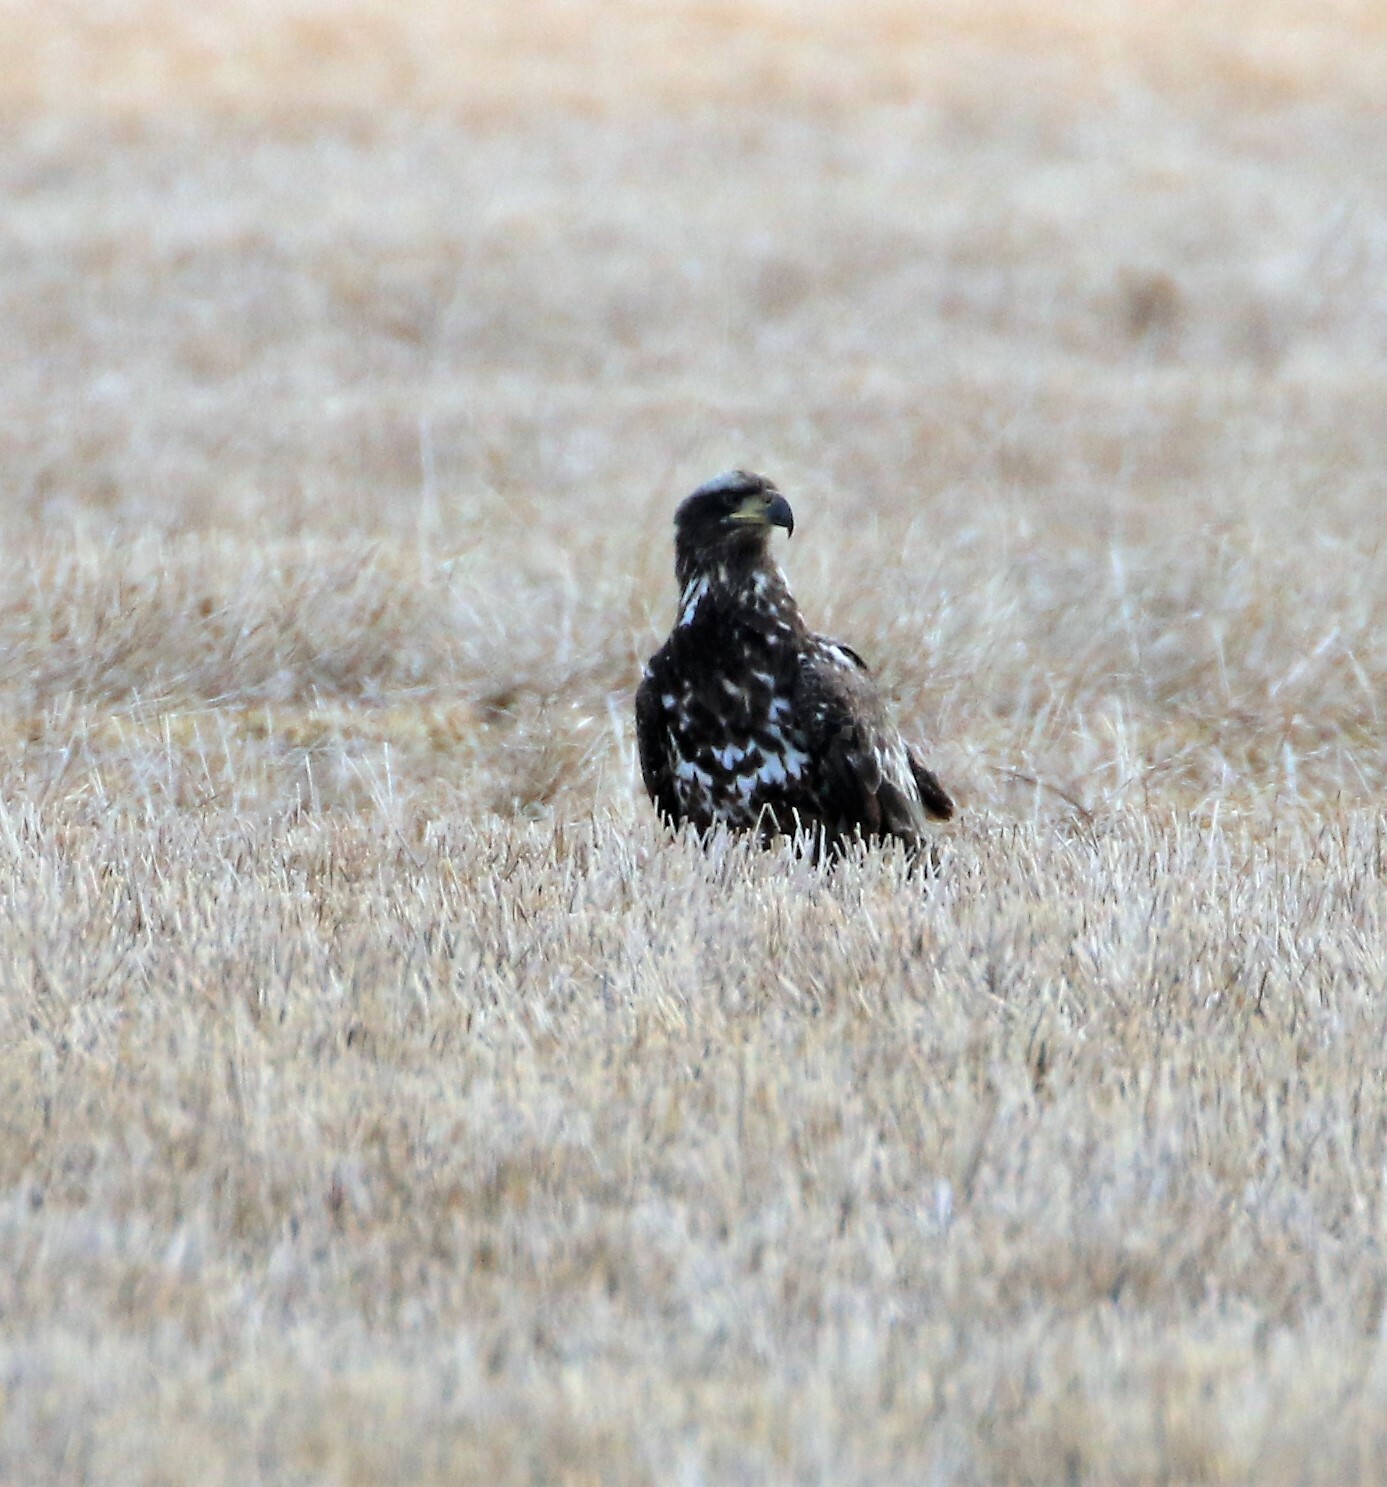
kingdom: Animalia
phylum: Chordata
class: Aves
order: Accipitriformes
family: Accipitridae
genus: Haliaeetus
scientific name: Haliaeetus leucocephalus
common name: Bald eagle
